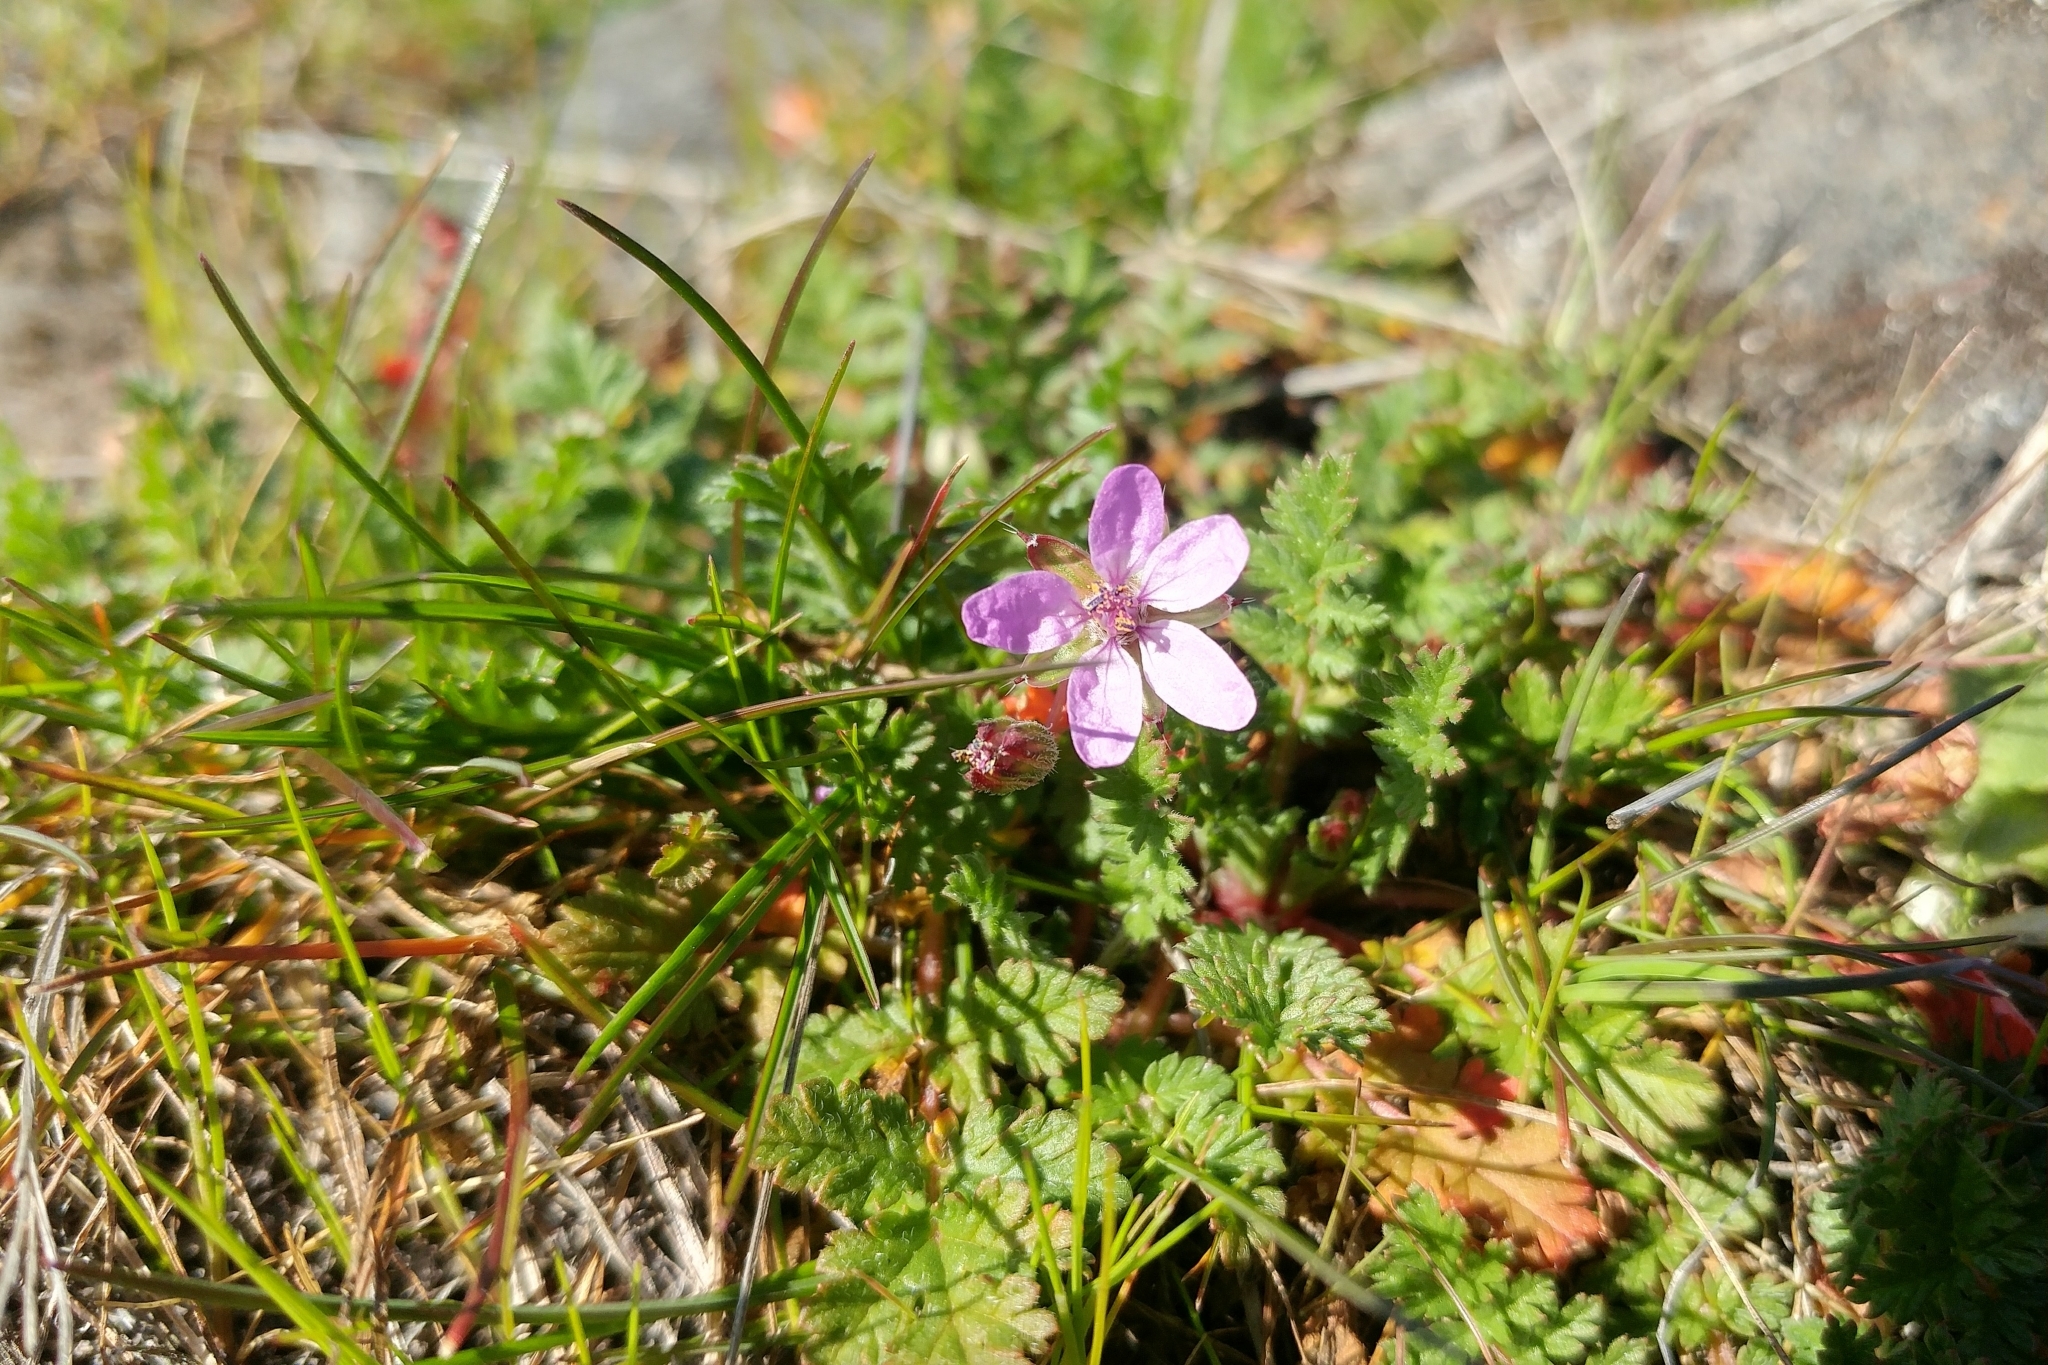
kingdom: Plantae
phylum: Tracheophyta
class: Magnoliopsida
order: Geraniales
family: Geraniaceae
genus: Erodium
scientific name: Erodium cicutarium
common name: Common stork's-bill
